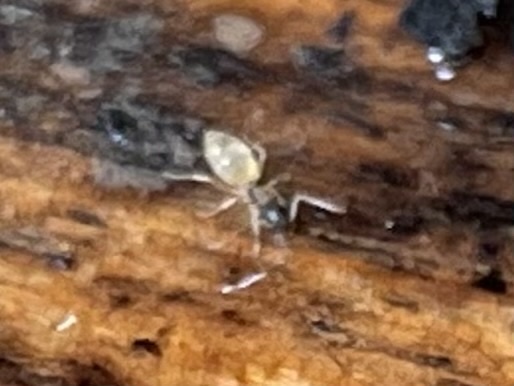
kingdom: Animalia
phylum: Arthropoda
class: Insecta
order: Hymenoptera
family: Formicidae
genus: Tapinoma
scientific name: Tapinoma melanocephalum
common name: Ghost ant
